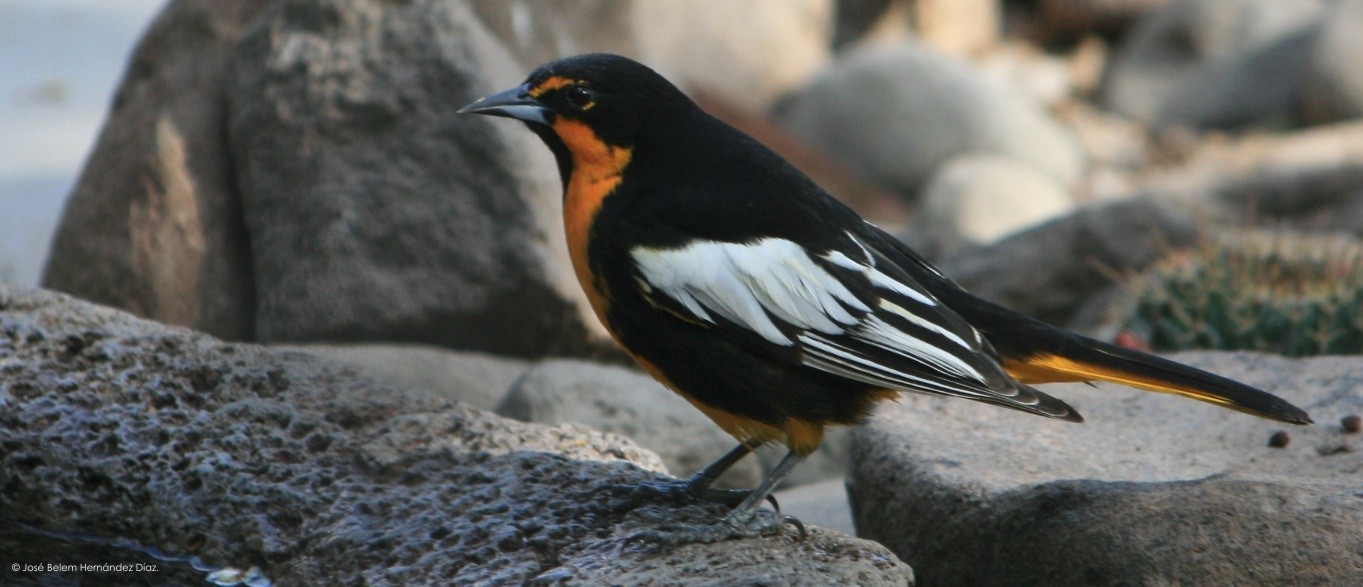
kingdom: Animalia
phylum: Chordata
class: Aves
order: Passeriformes
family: Icteridae
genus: Icterus
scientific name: Icterus abeillei
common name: Black-backed oriole
